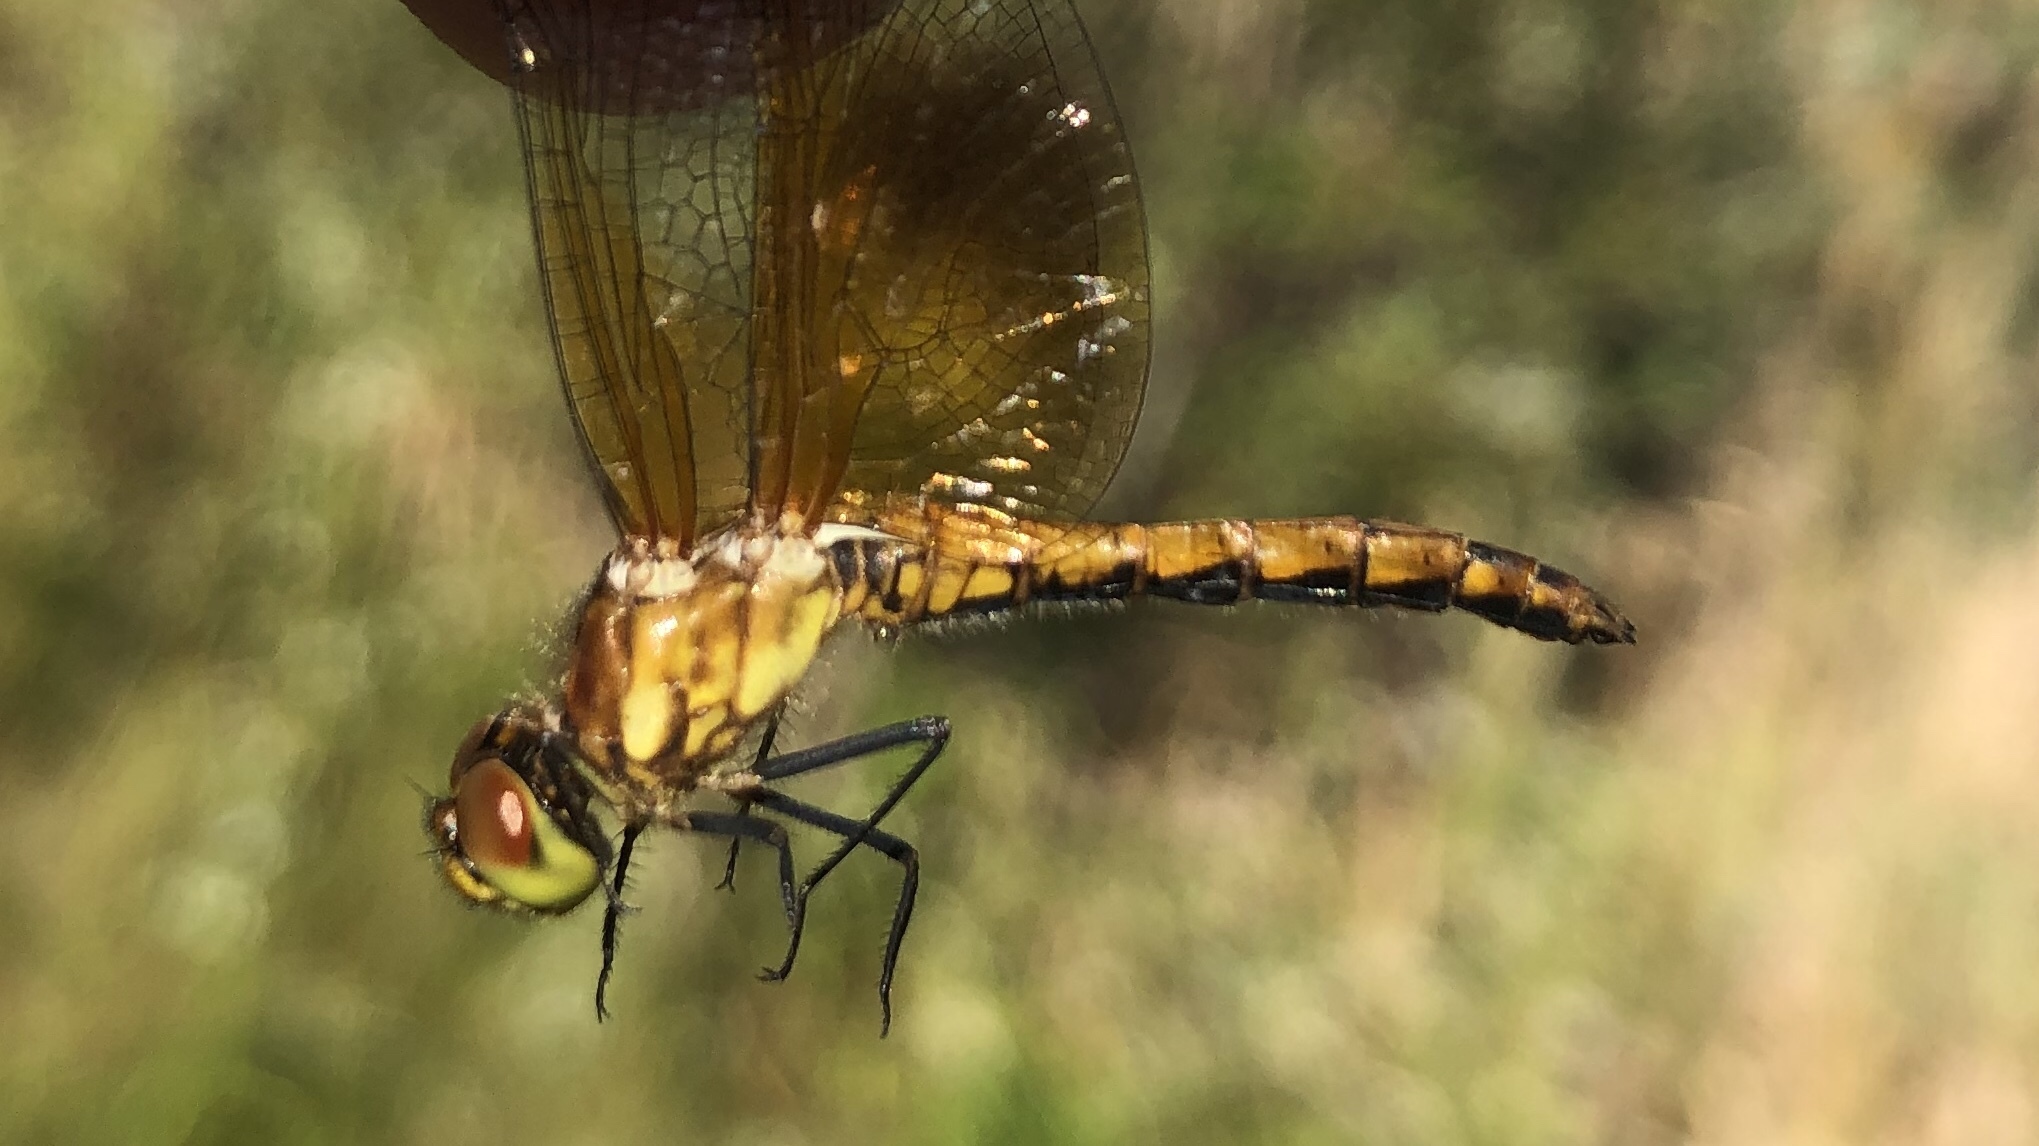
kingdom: Animalia
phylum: Arthropoda
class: Insecta
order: Odonata
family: Libellulidae
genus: Sympetrum
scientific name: Sympetrum semicinctum
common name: Band-winged meadowhawk
